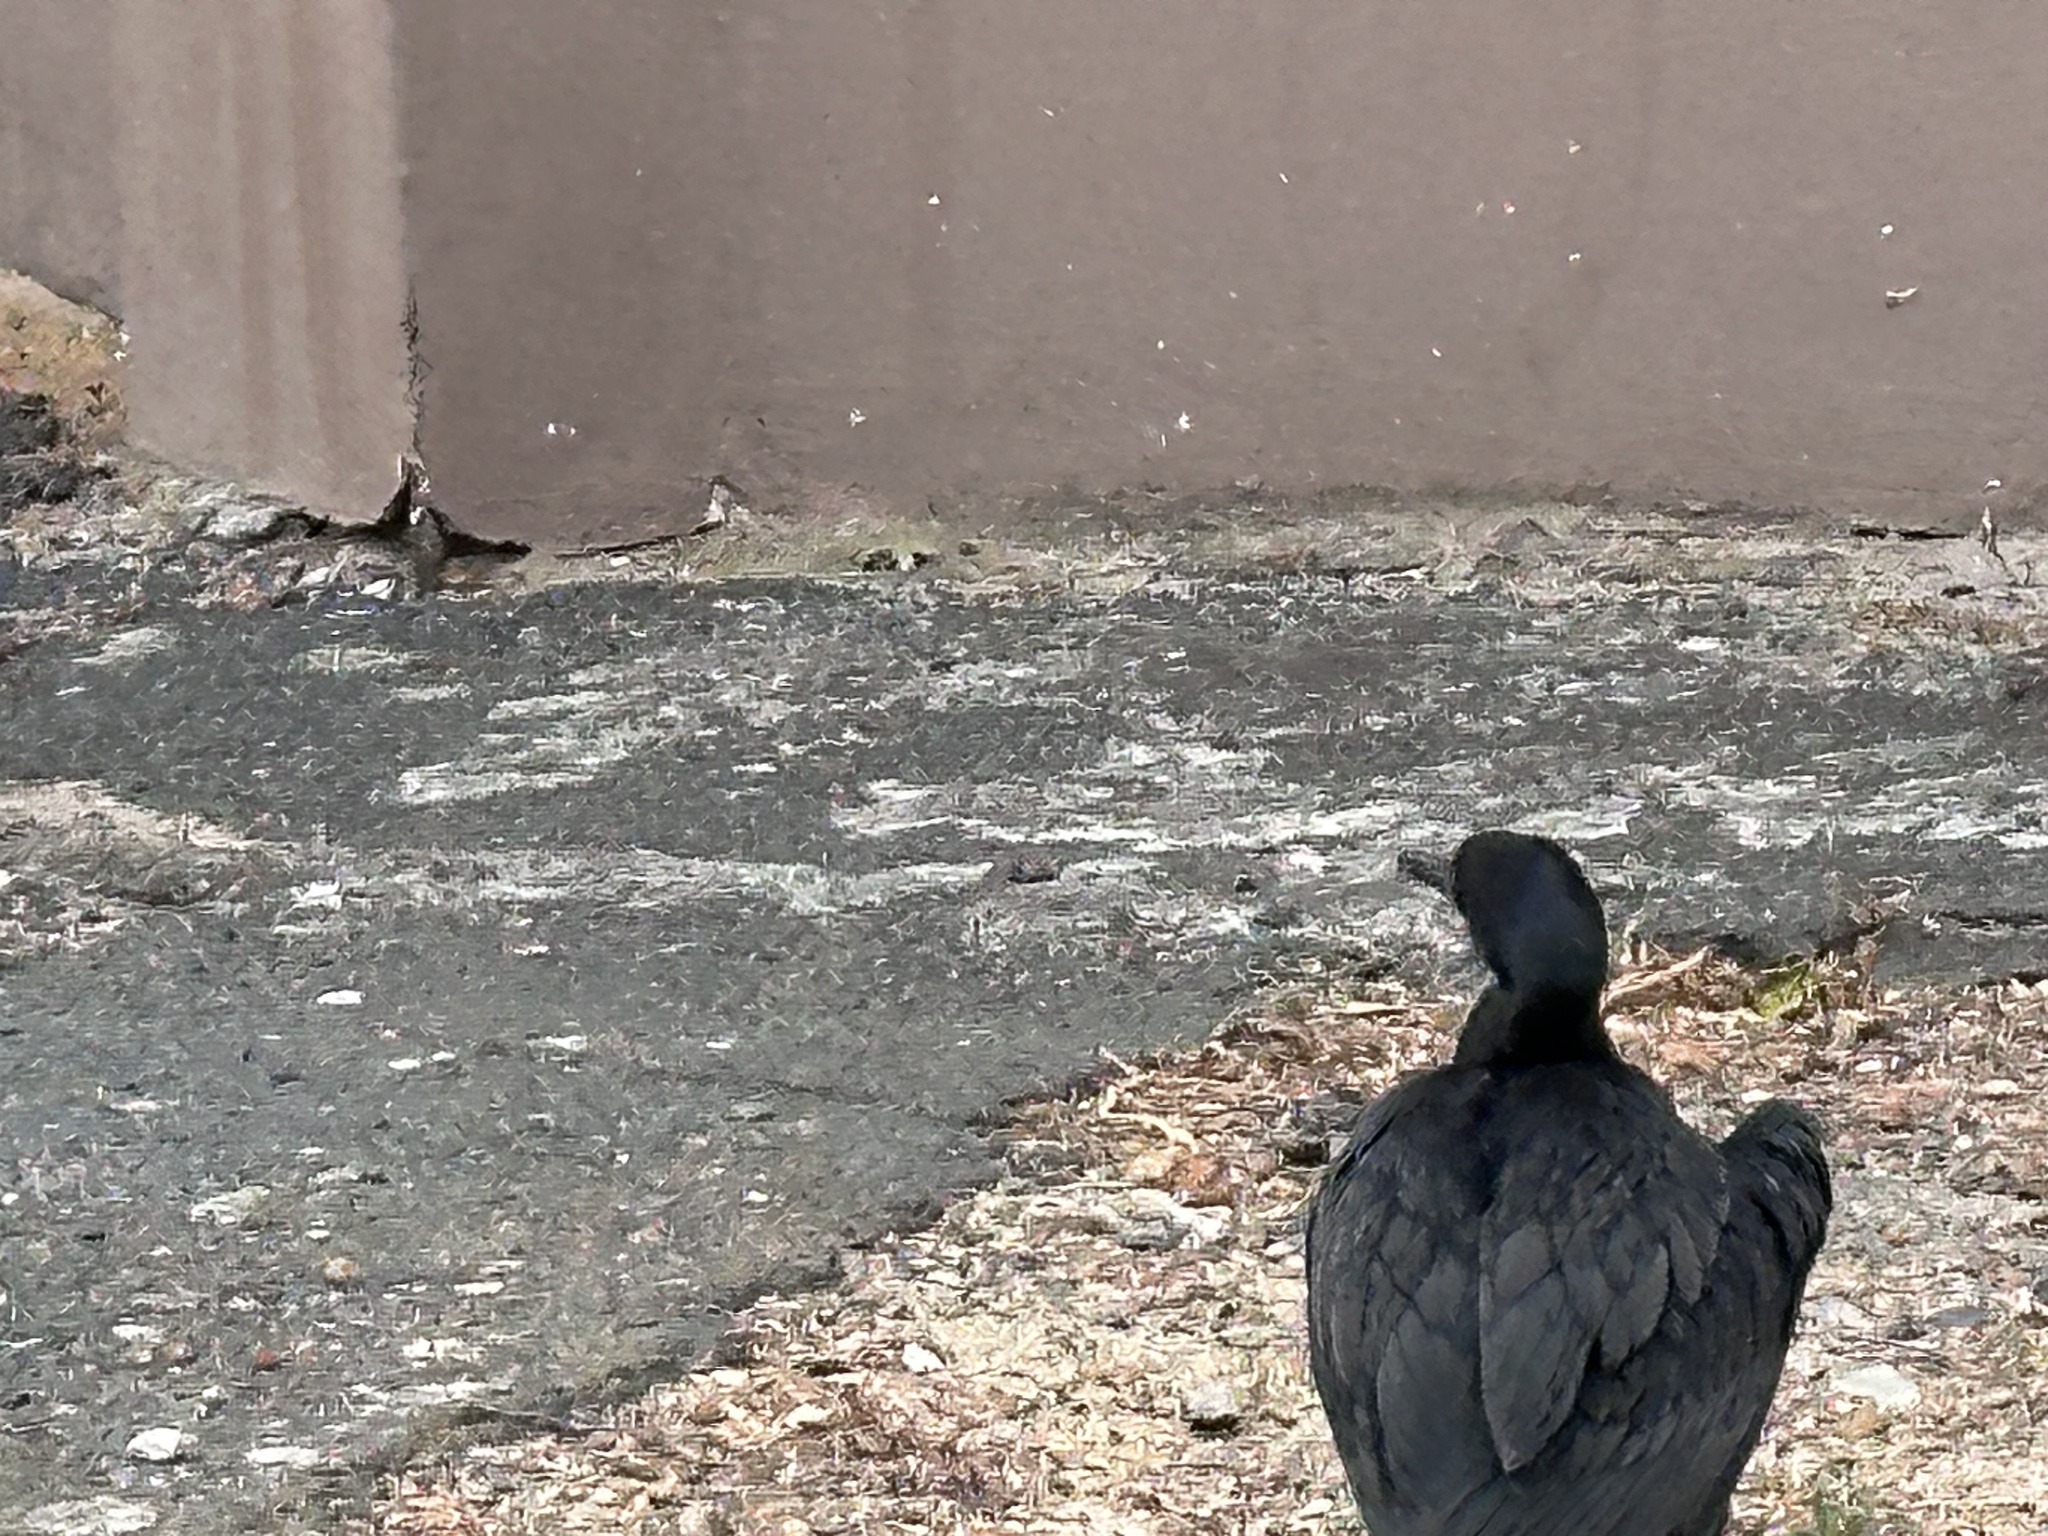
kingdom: Animalia
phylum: Chordata
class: Aves
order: Suliformes
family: Phalacrocoracidae
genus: Phalacrocorax
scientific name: Phalacrocorax capensis
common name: Cape cormorant
